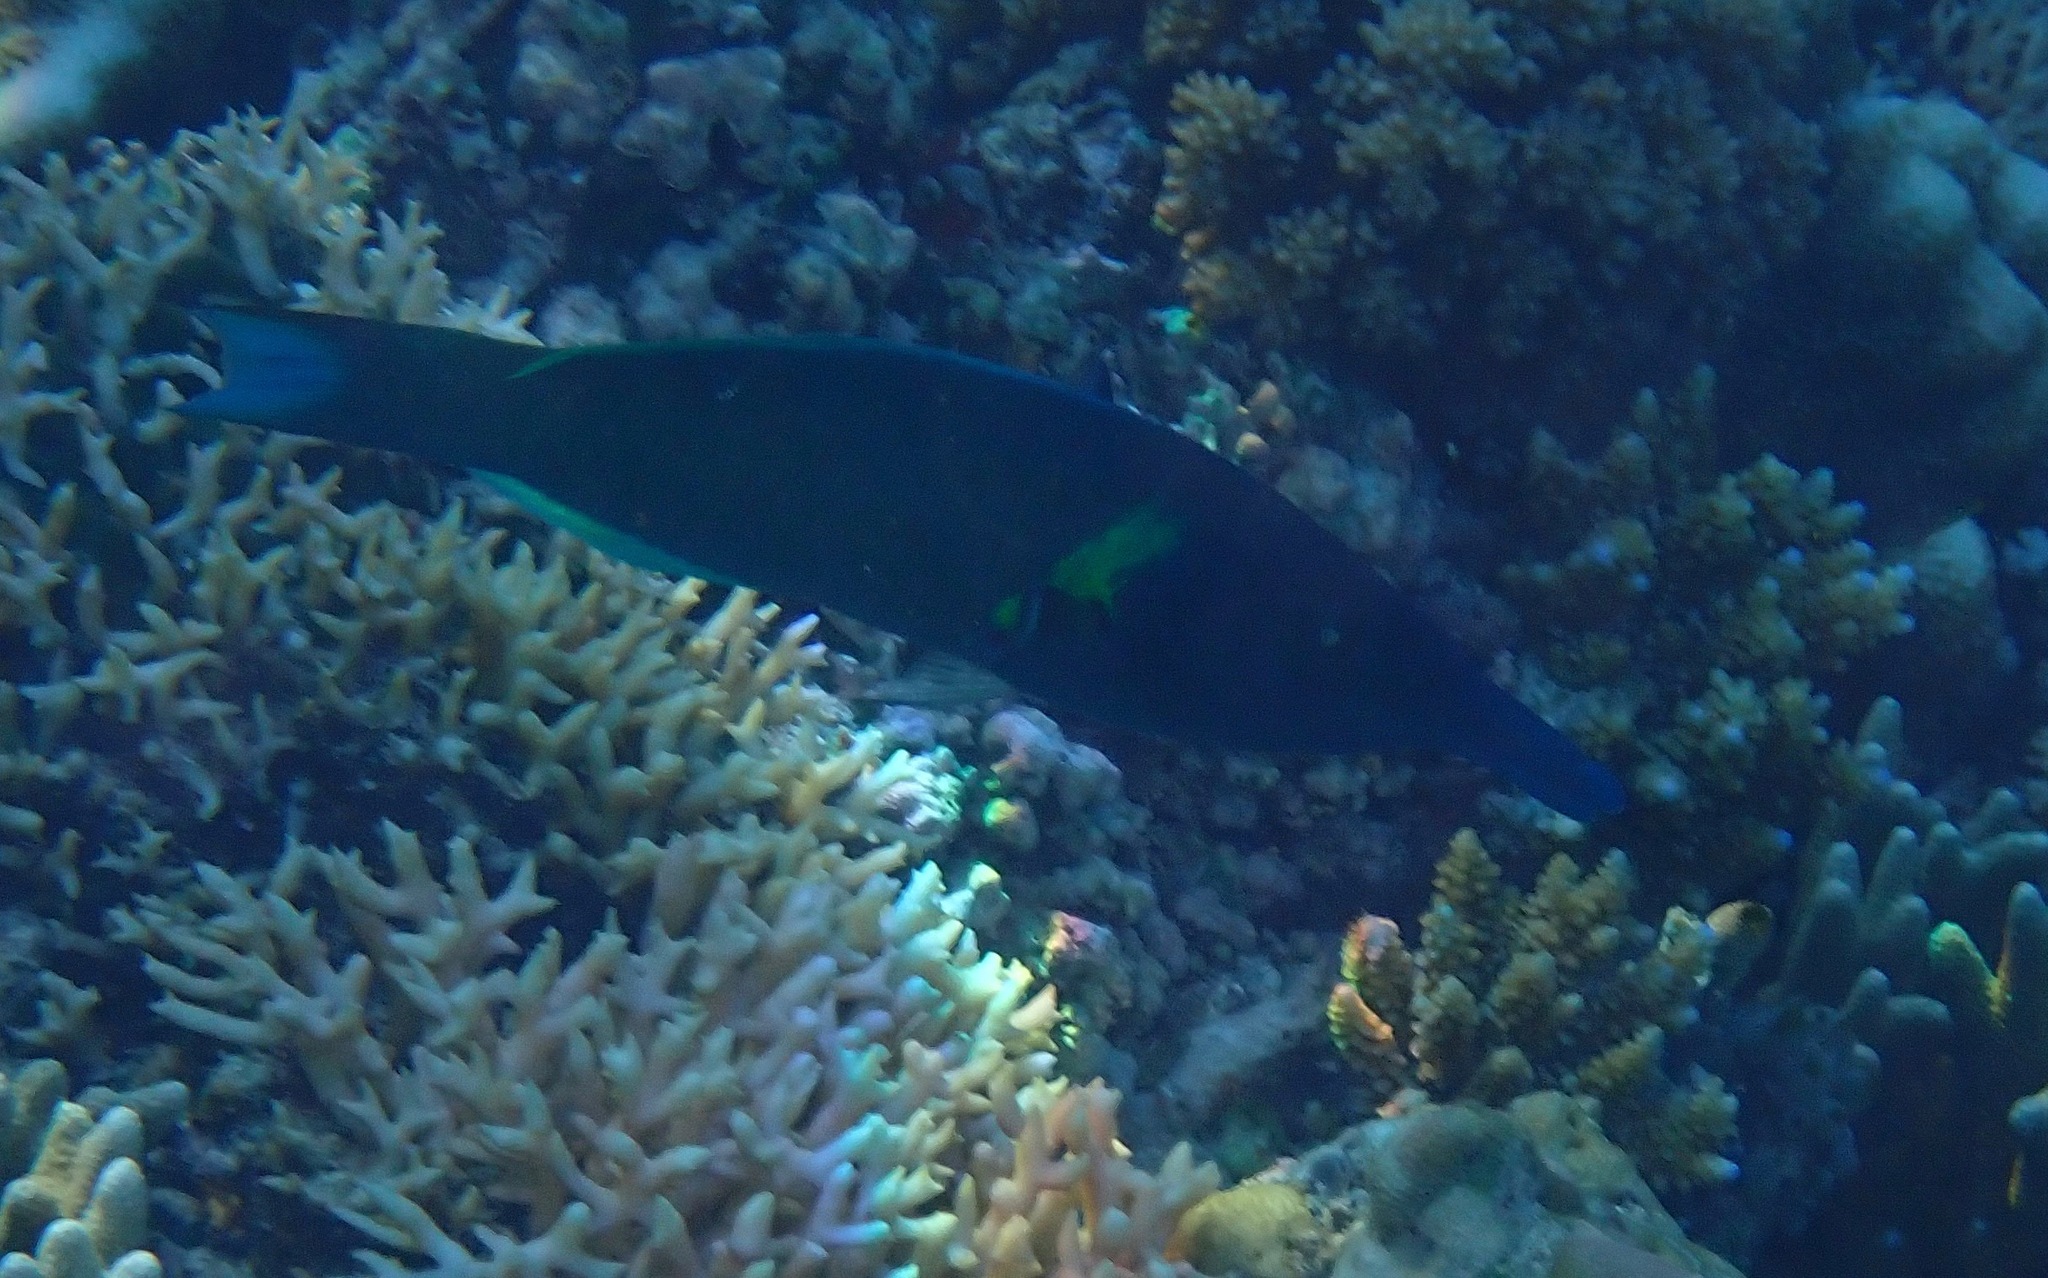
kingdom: Animalia
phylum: Chordata
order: Perciformes
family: Labridae
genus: Gomphosus
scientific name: Gomphosus varius
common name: Bird wrasse
